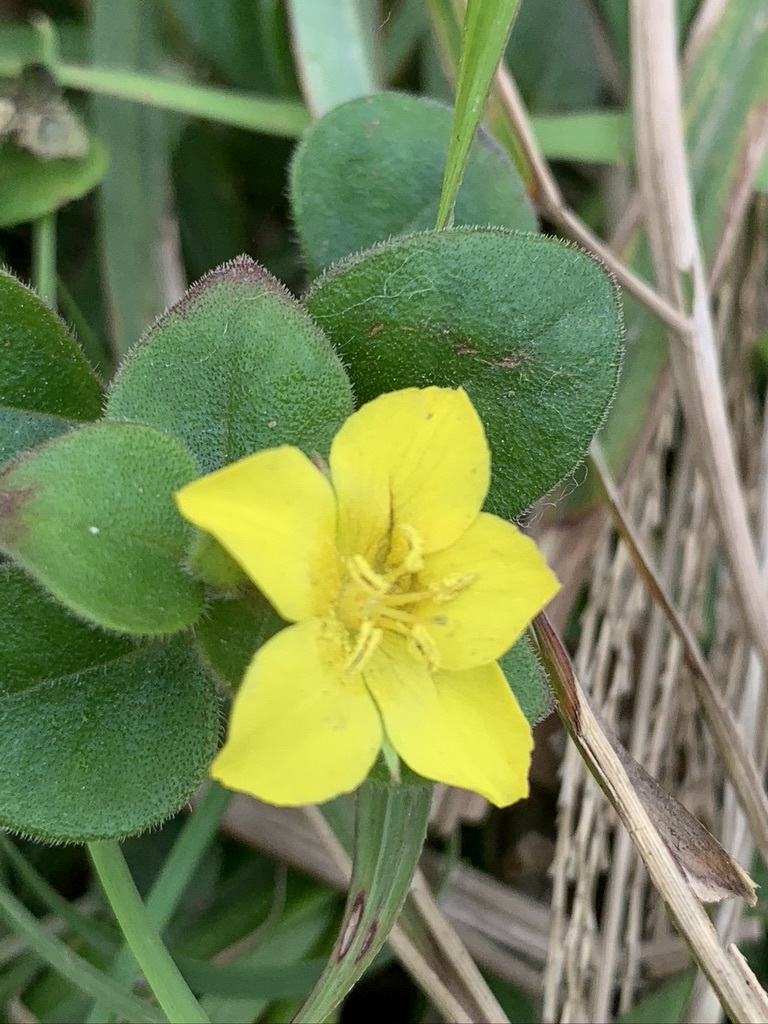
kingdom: Plantae
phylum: Tracheophyta
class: Magnoliopsida
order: Ericales
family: Primulaceae
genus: Lysimachia
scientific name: Lysimachia remota
